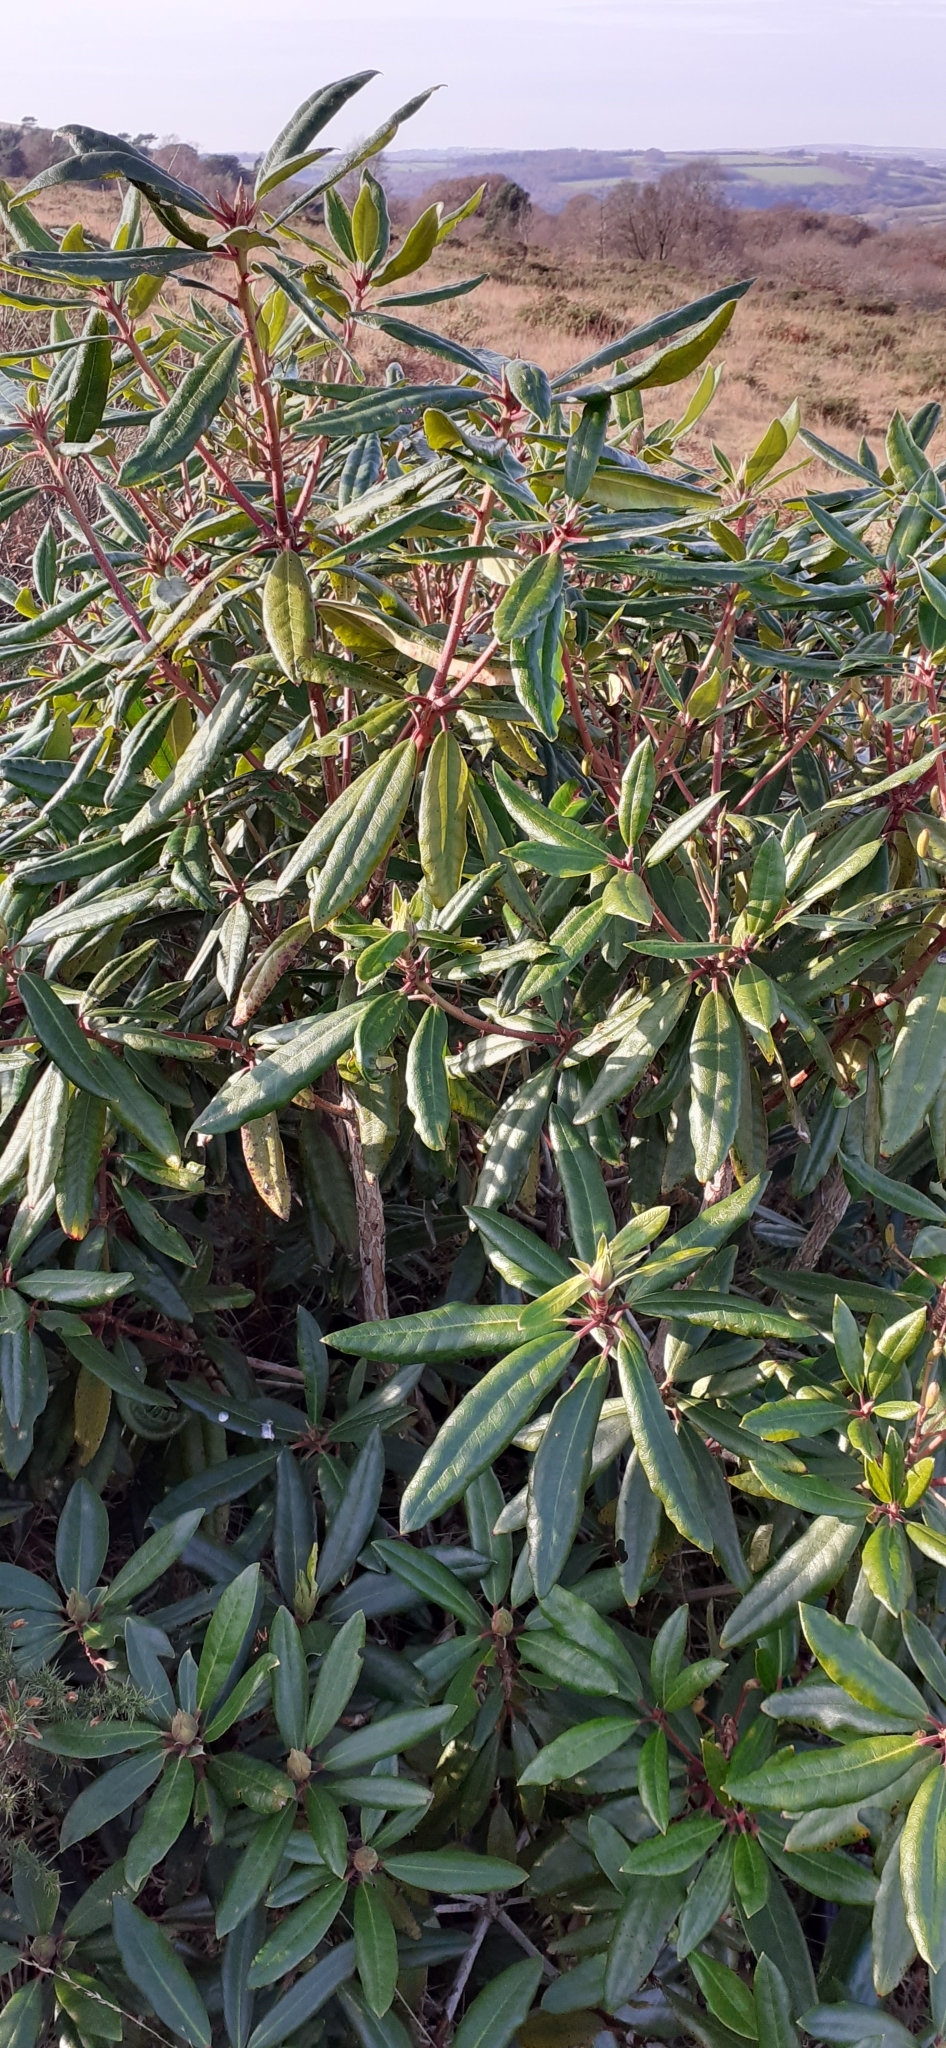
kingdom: Plantae
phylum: Tracheophyta
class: Magnoliopsida
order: Ericales
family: Ericaceae
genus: Rhododendron
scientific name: Rhododendron ponticum
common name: Rhododendron
